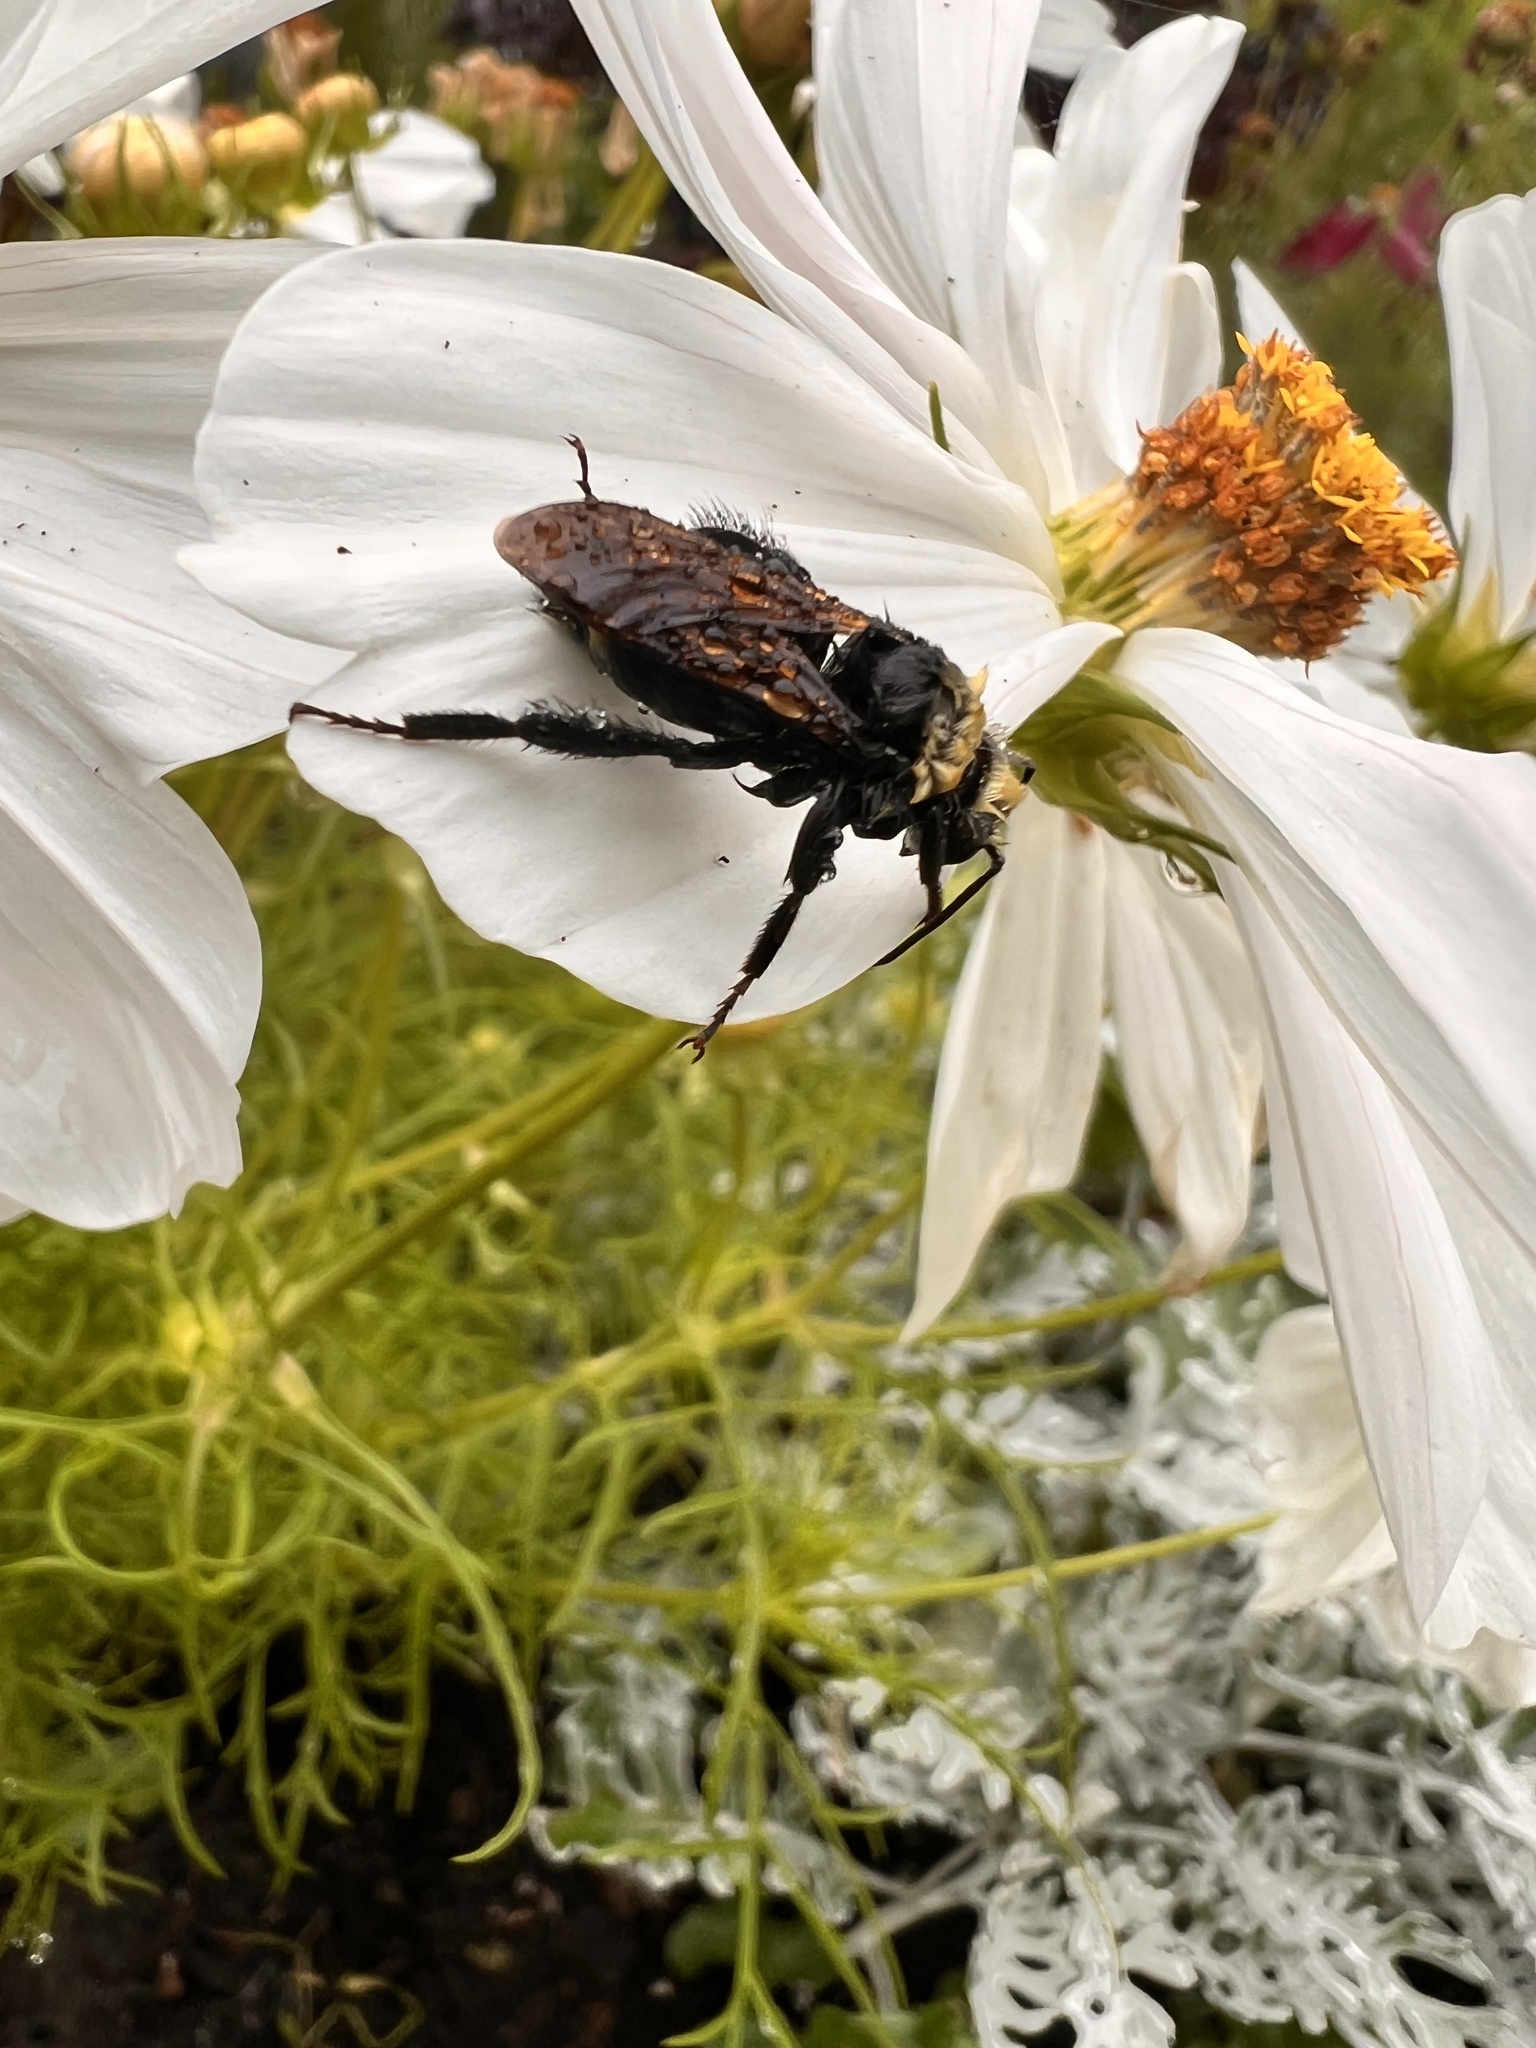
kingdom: Animalia
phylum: Arthropoda
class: Insecta
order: Hymenoptera
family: Apidae
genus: Bombus
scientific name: Bombus vosnesenskii
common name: Vosnesensky bumble bee
